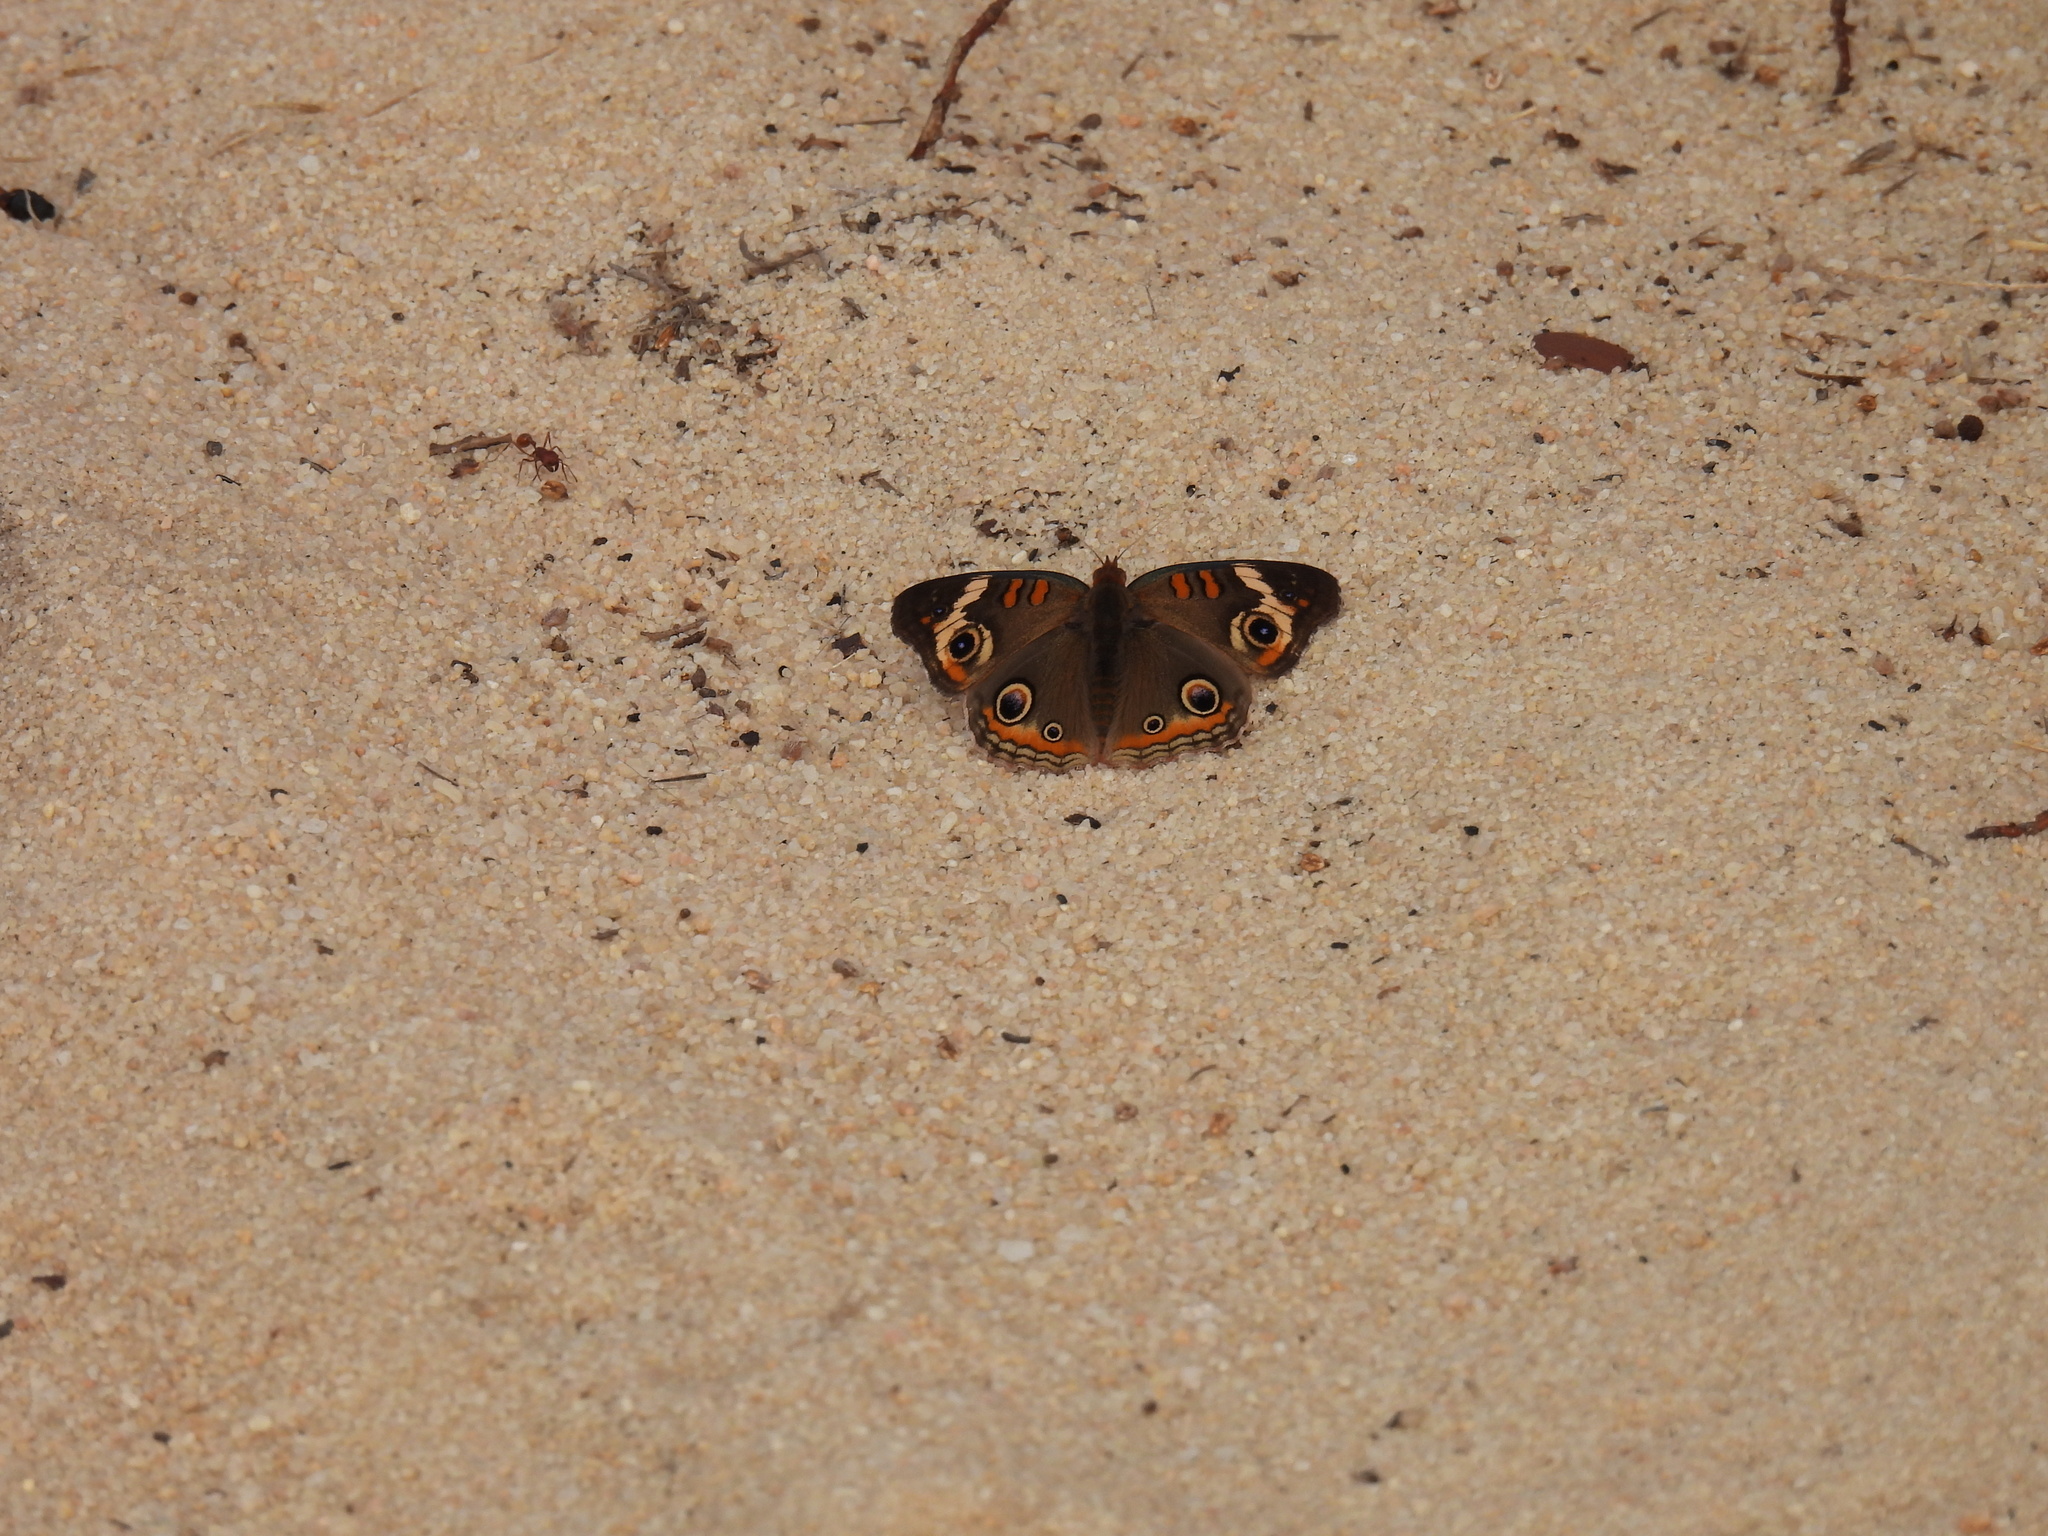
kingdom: Animalia
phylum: Arthropoda
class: Insecta
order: Lepidoptera
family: Nymphalidae
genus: Junonia
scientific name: Junonia coenia
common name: Common buckeye
